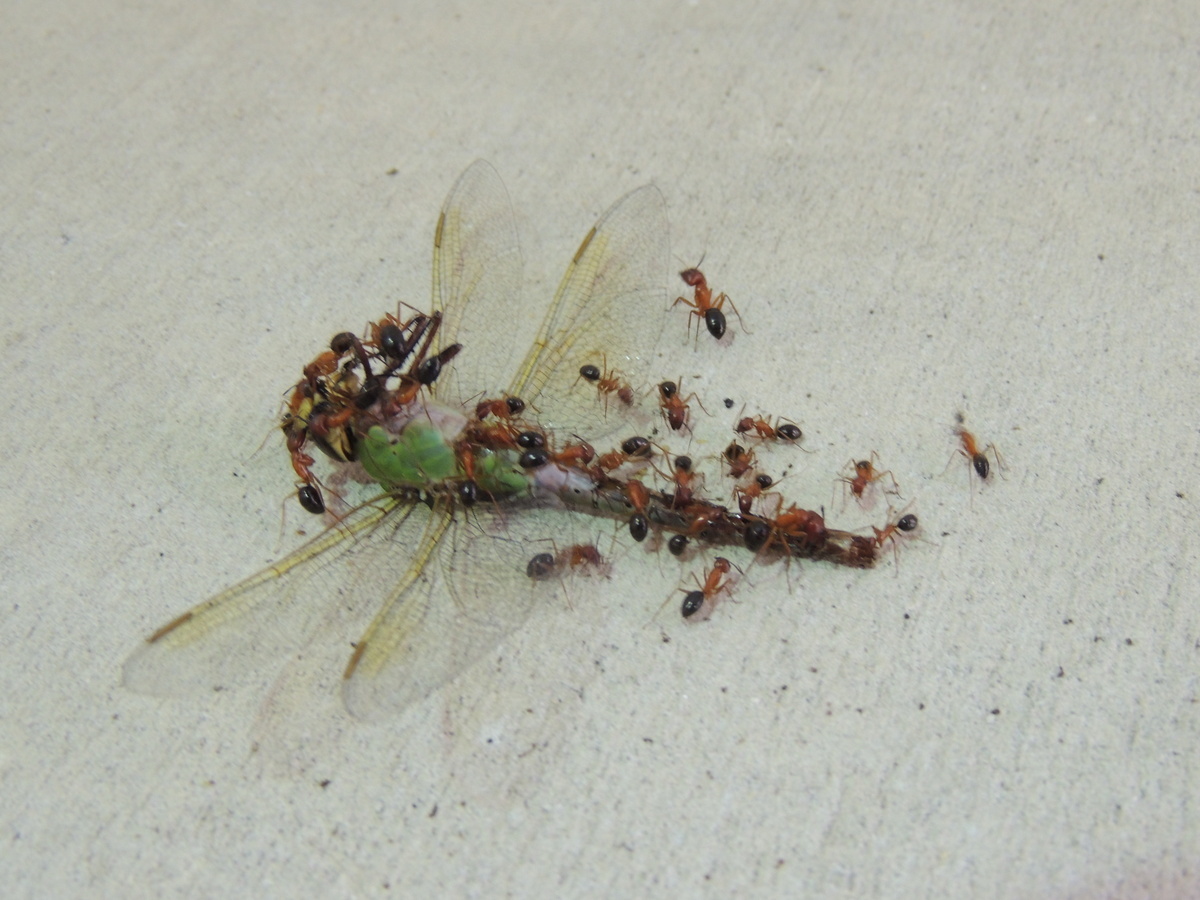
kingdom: Animalia
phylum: Arthropoda
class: Insecta
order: Hymenoptera
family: Formicidae
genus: Camponotus
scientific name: Camponotus floridanus
